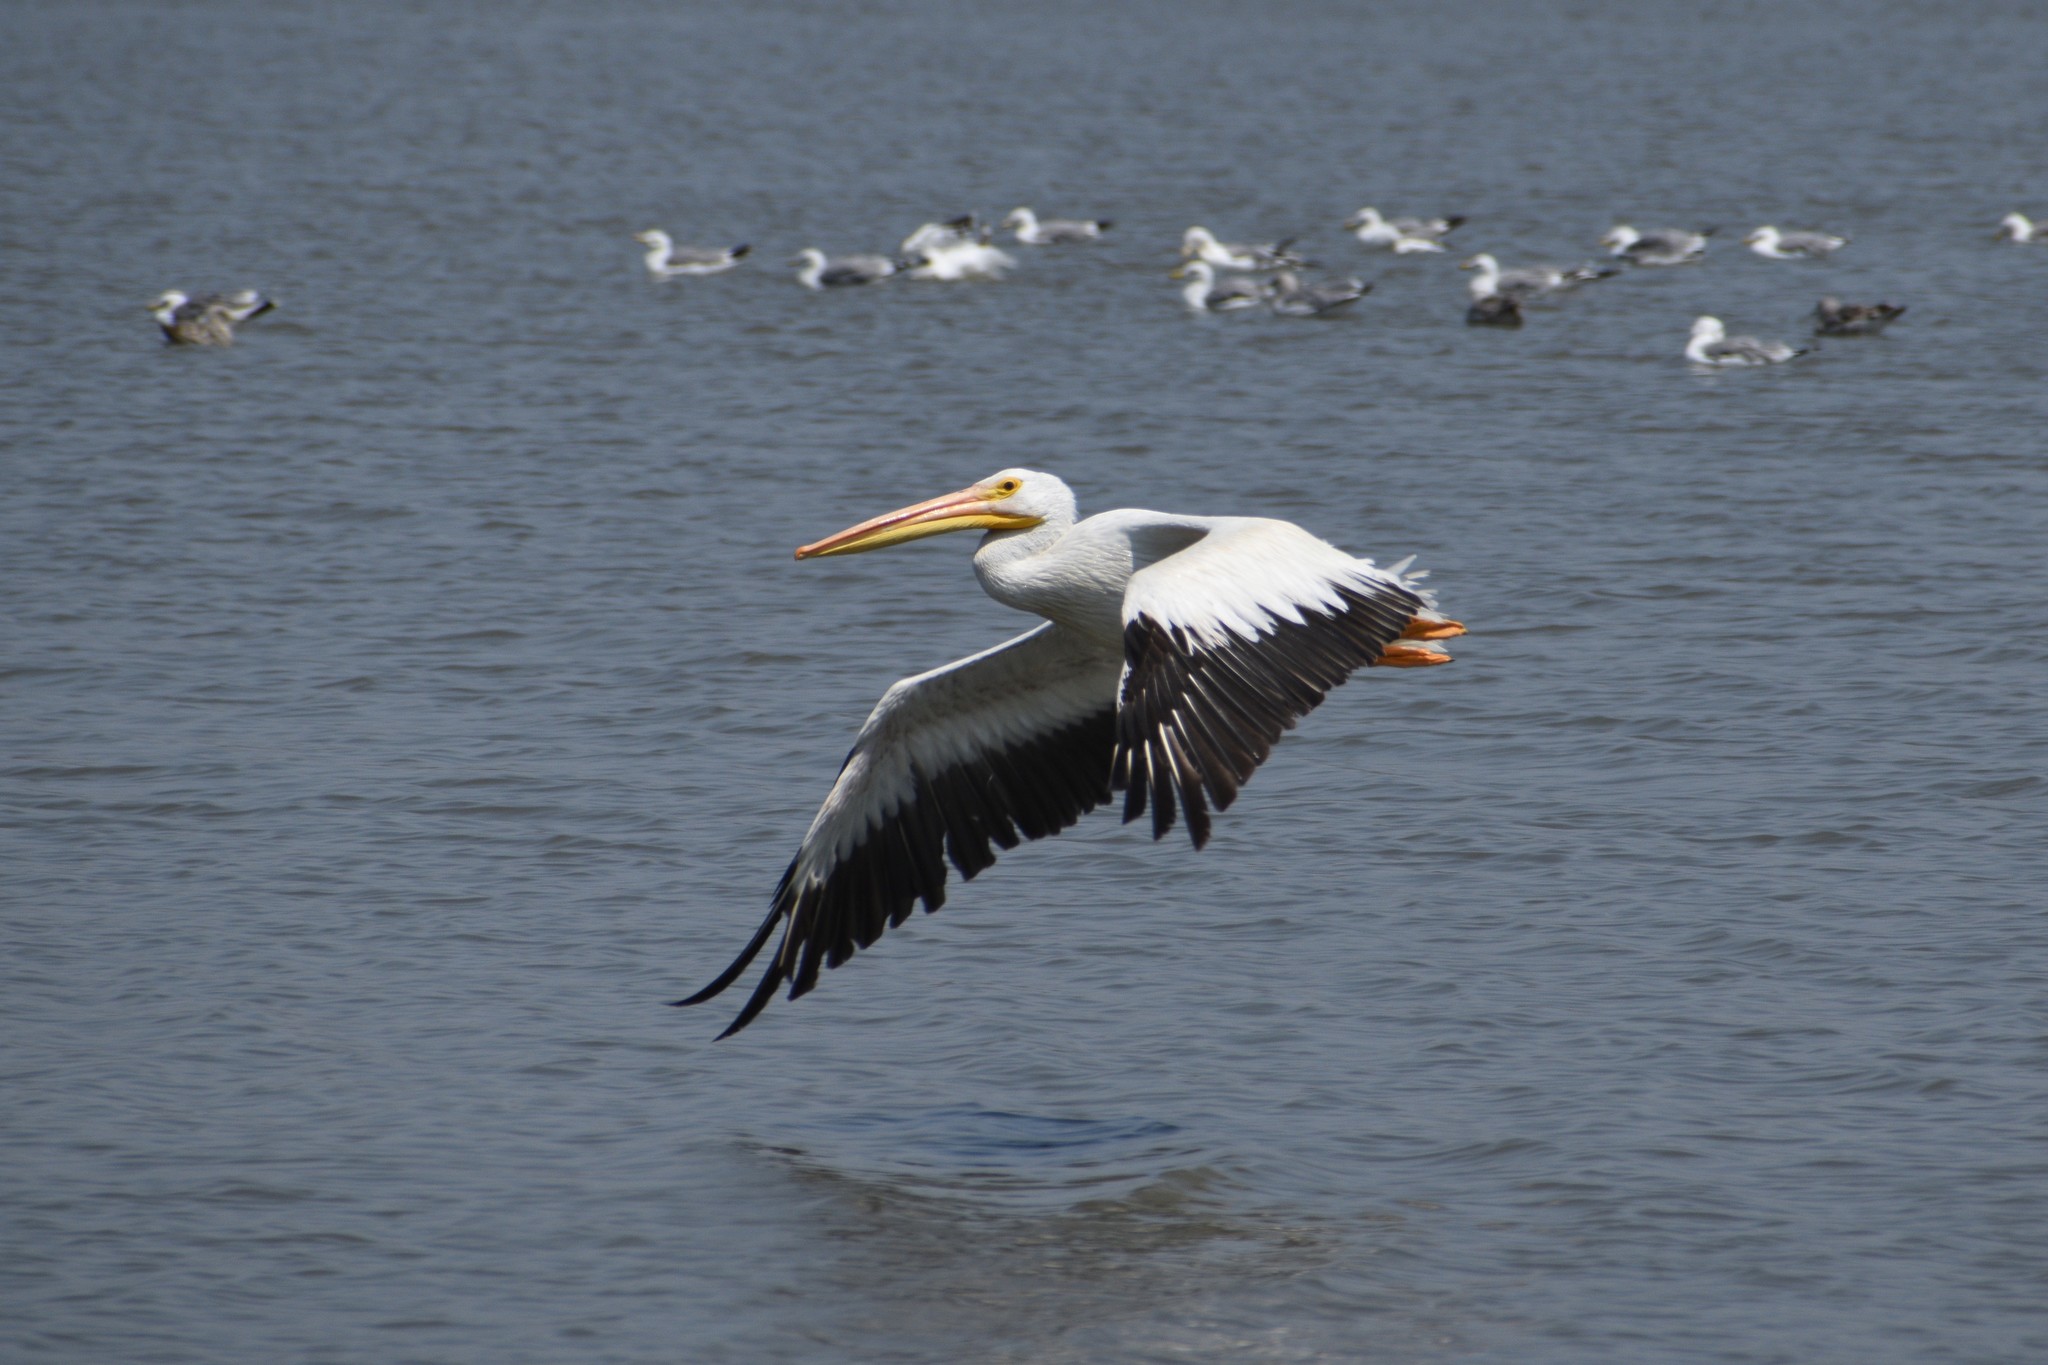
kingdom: Animalia
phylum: Chordata
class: Aves
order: Pelecaniformes
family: Pelecanidae
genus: Pelecanus
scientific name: Pelecanus erythrorhynchos
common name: American white pelican
